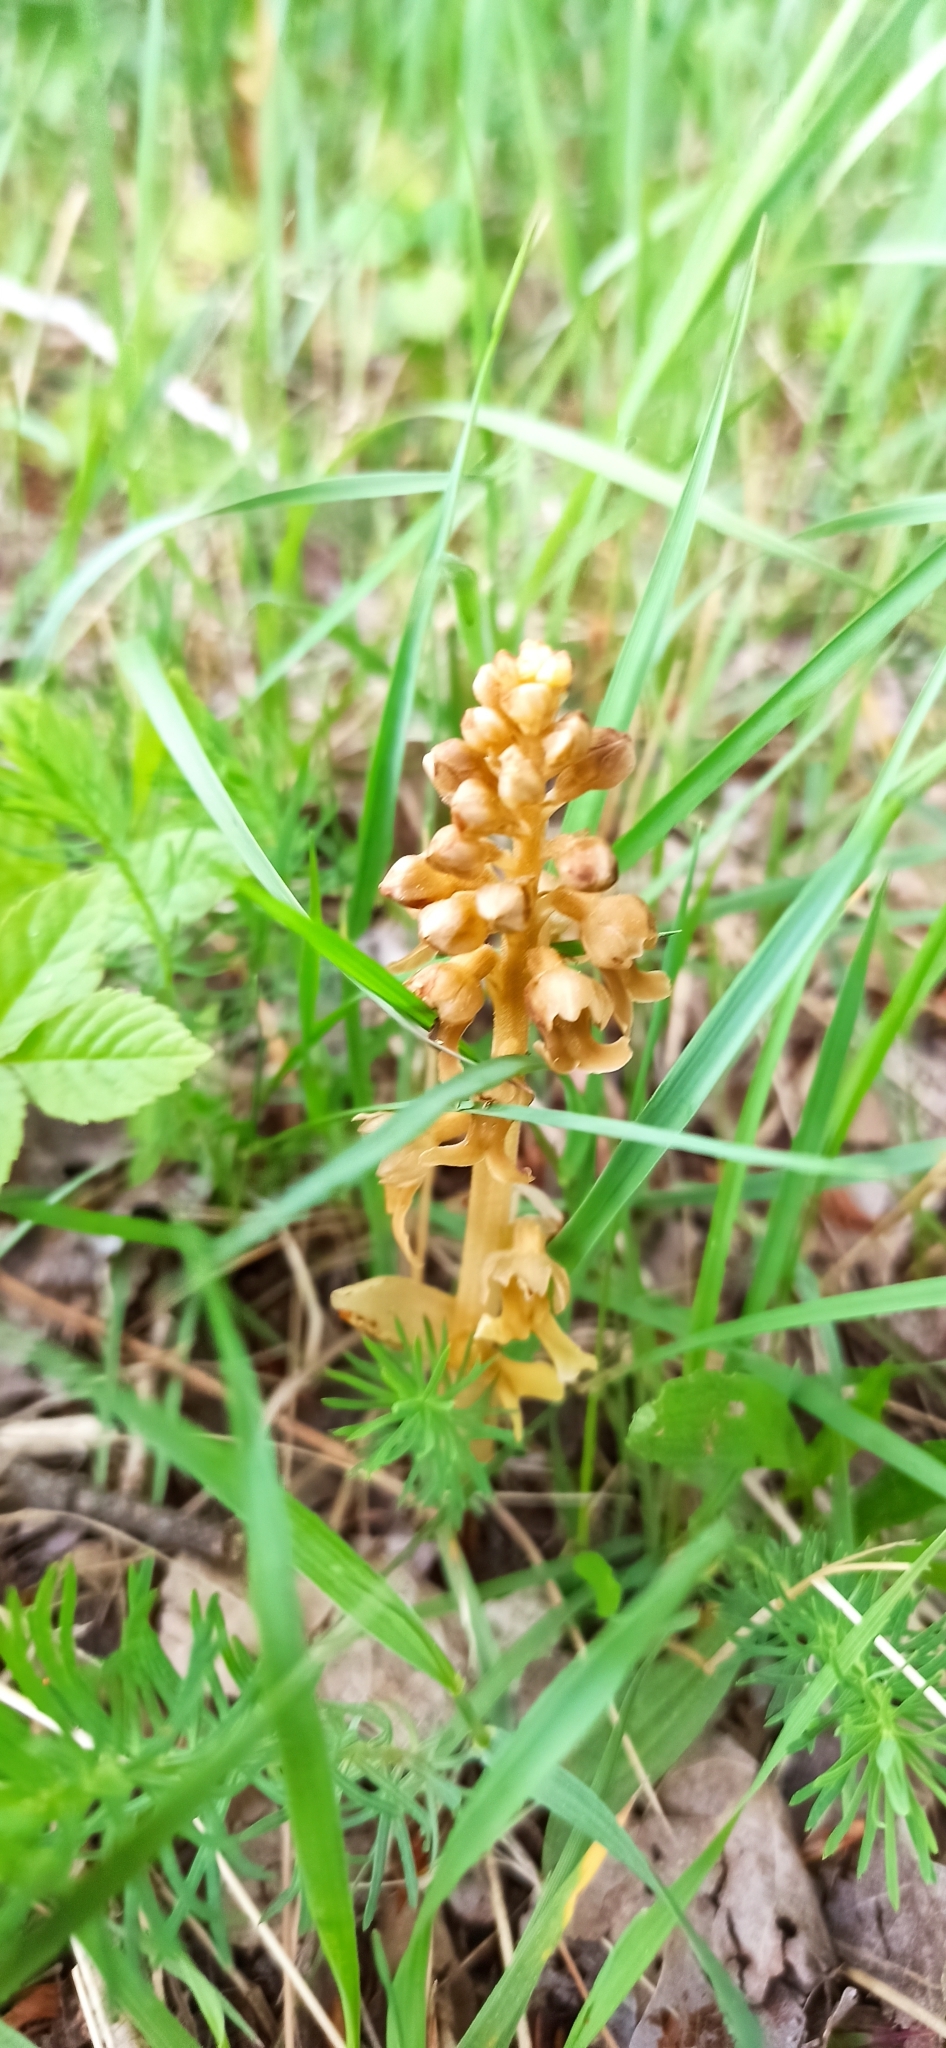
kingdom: Plantae
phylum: Tracheophyta
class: Liliopsida
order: Asparagales
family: Orchidaceae
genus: Neottia
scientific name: Neottia nidus-avis
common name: Bird's-nest orchid
